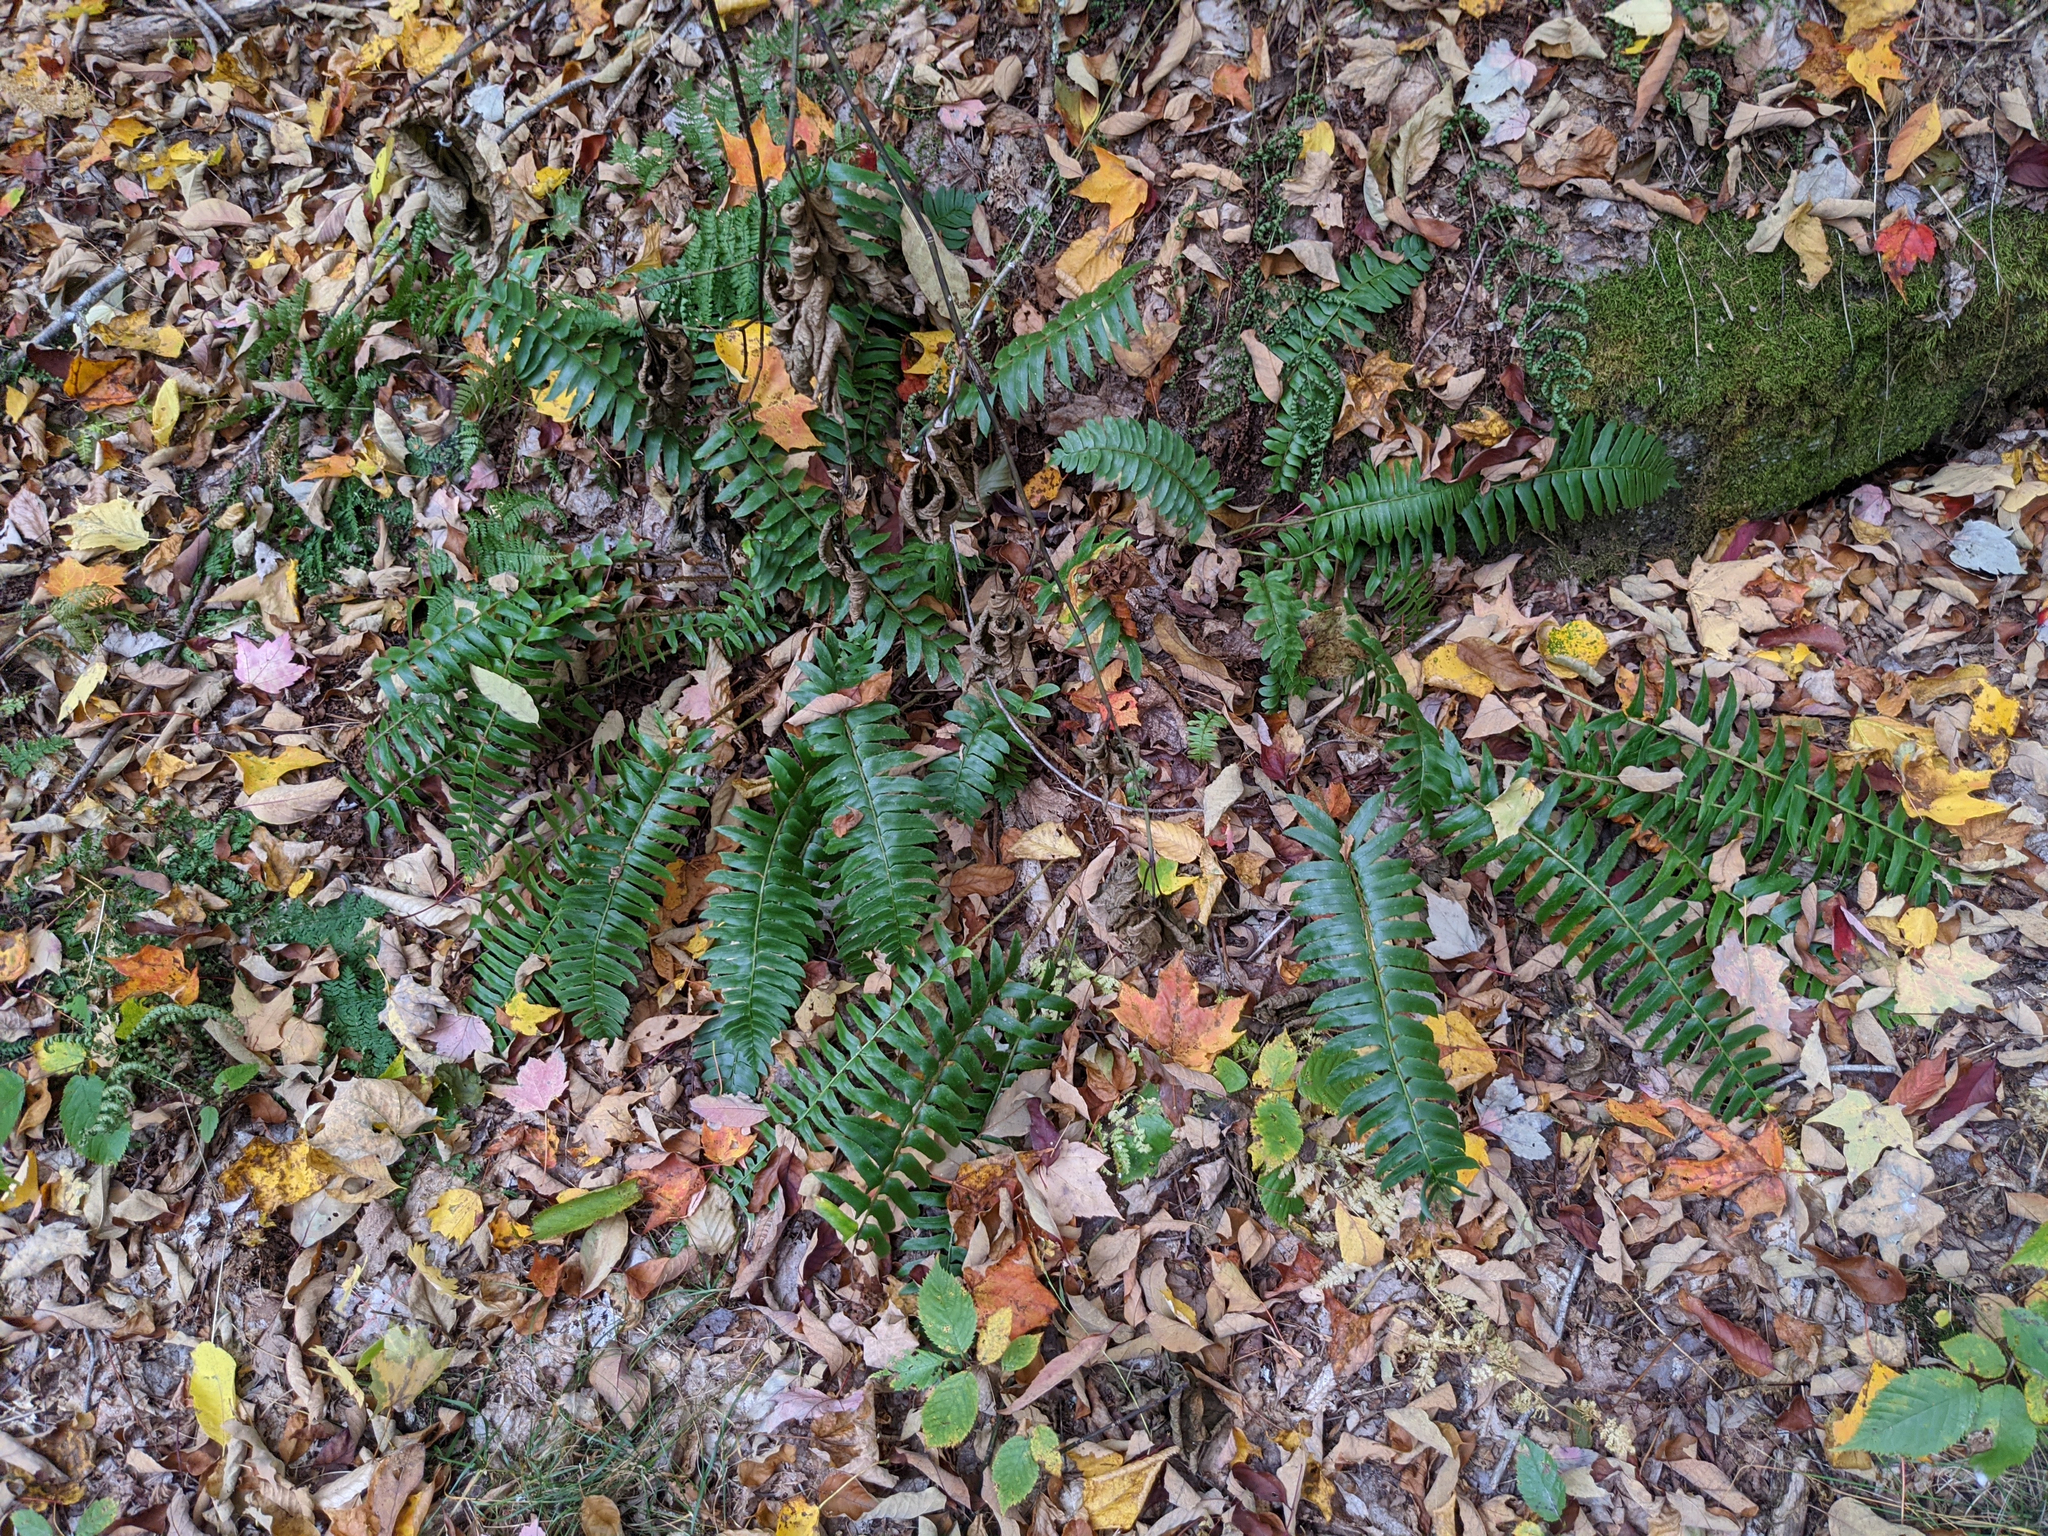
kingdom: Plantae
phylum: Tracheophyta
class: Polypodiopsida
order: Polypodiales
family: Dryopteridaceae
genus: Polystichum
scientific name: Polystichum acrostichoides
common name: Christmas fern
